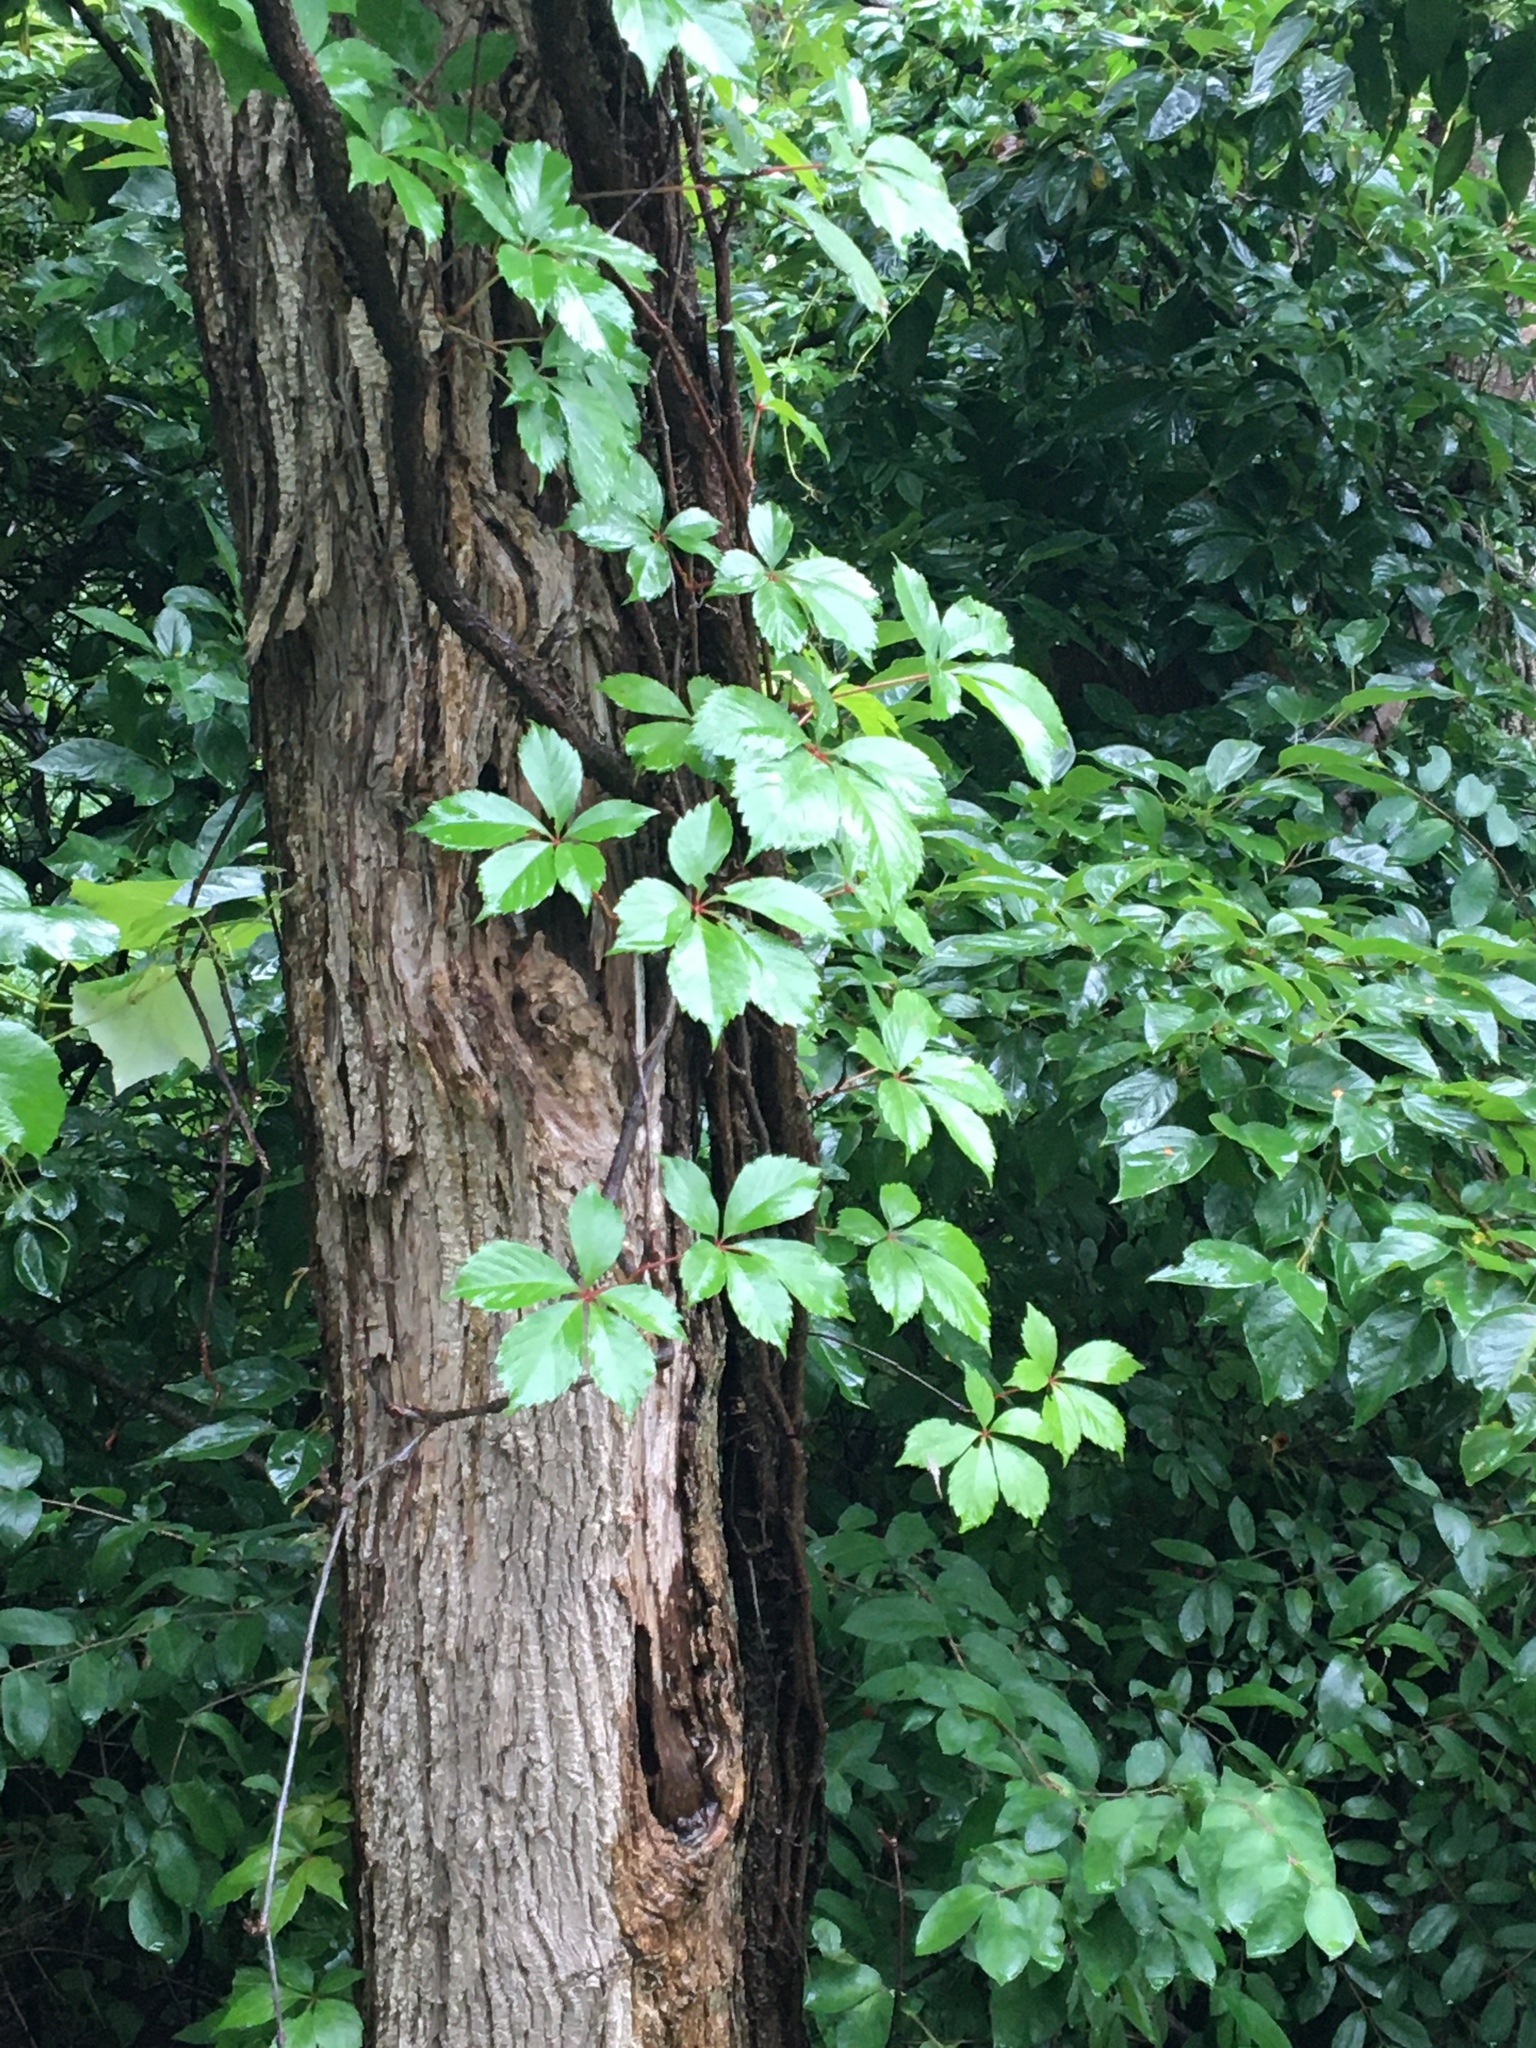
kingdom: Plantae
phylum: Tracheophyta
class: Magnoliopsida
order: Vitales
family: Vitaceae
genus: Parthenocissus
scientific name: Parthenocissus quinquefolia
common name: Virginia-creeper
